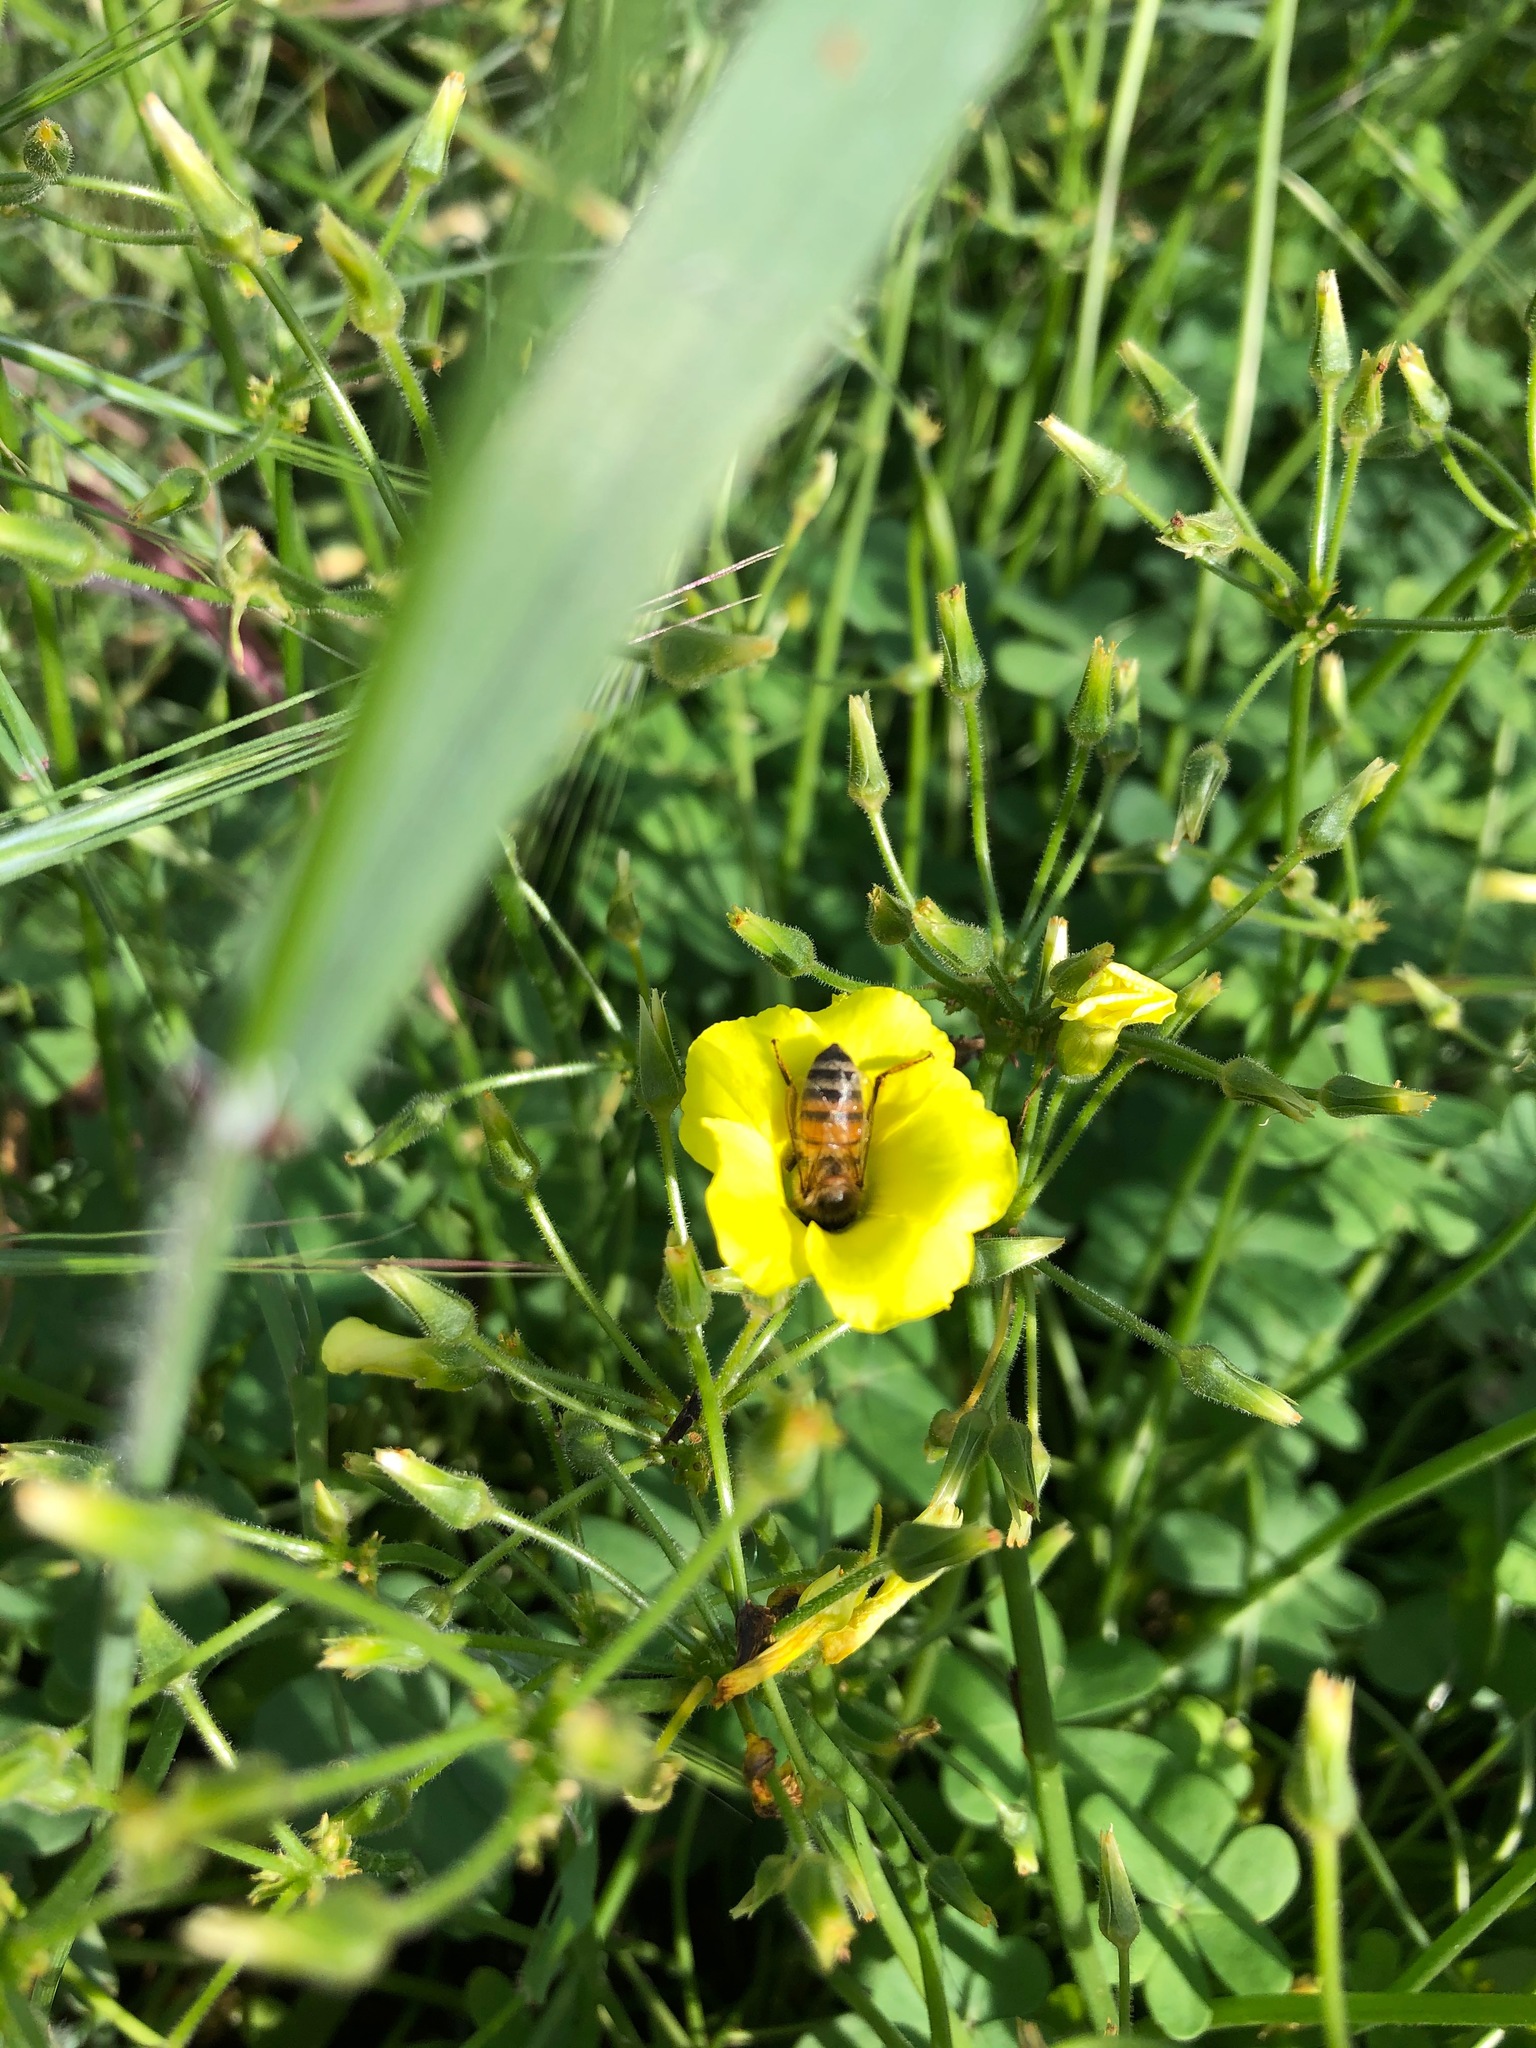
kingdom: Animalia
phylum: Arthropoda
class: Insecta
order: Hymenoptera
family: Apidae
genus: Apis
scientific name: Apis mellifera
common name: Honey bee
